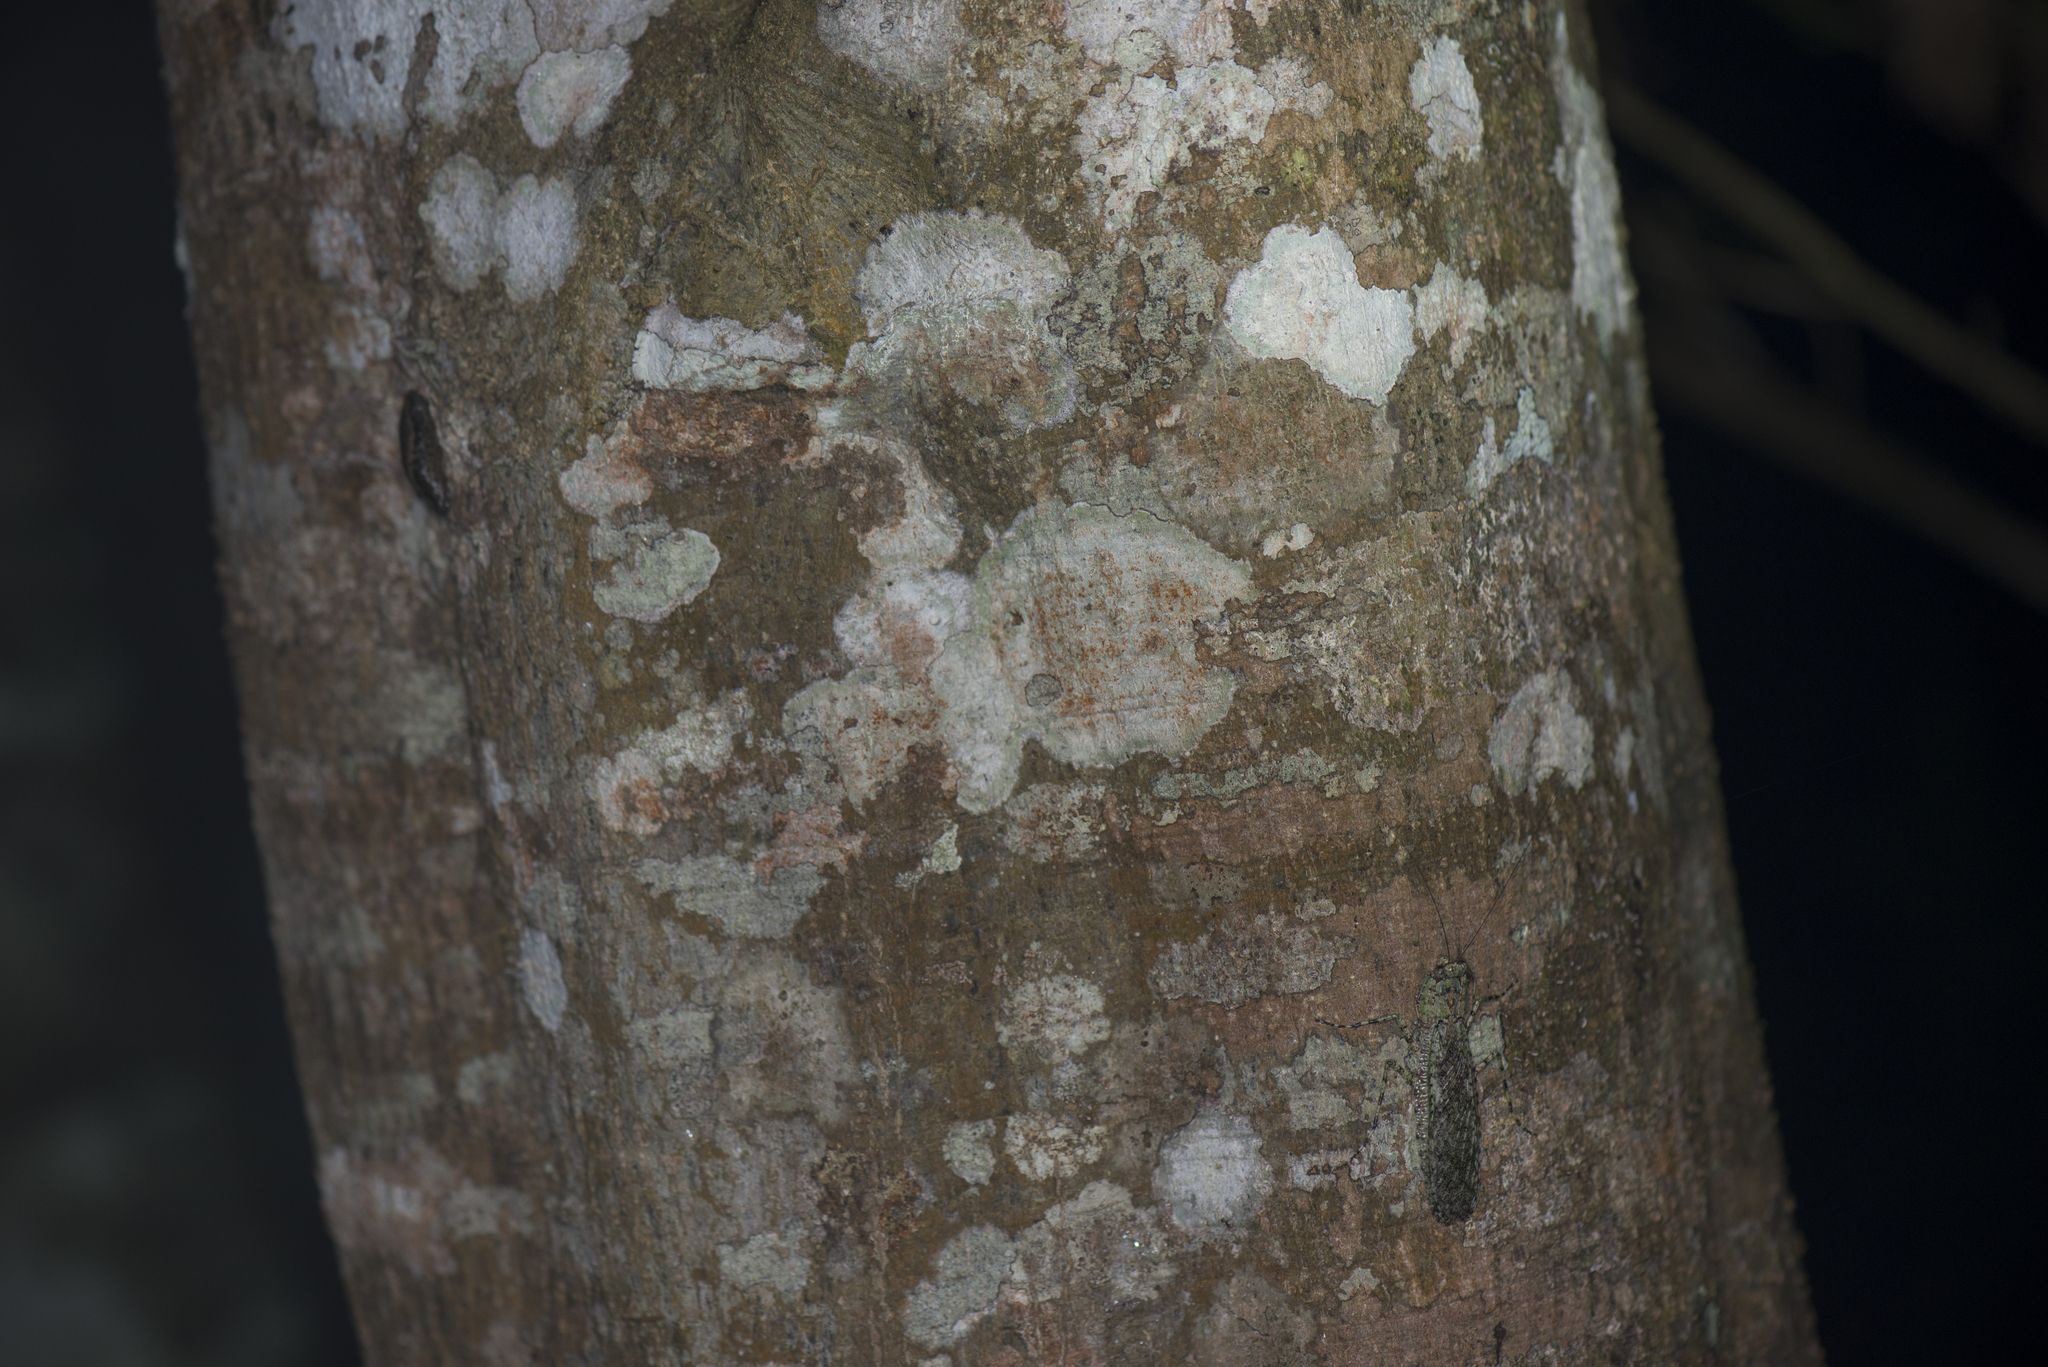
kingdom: Animalia
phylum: Arthropoda
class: Insecta
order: Mantodea
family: Gonypetidae
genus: Theopompa
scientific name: Theopompa ophthalmica
